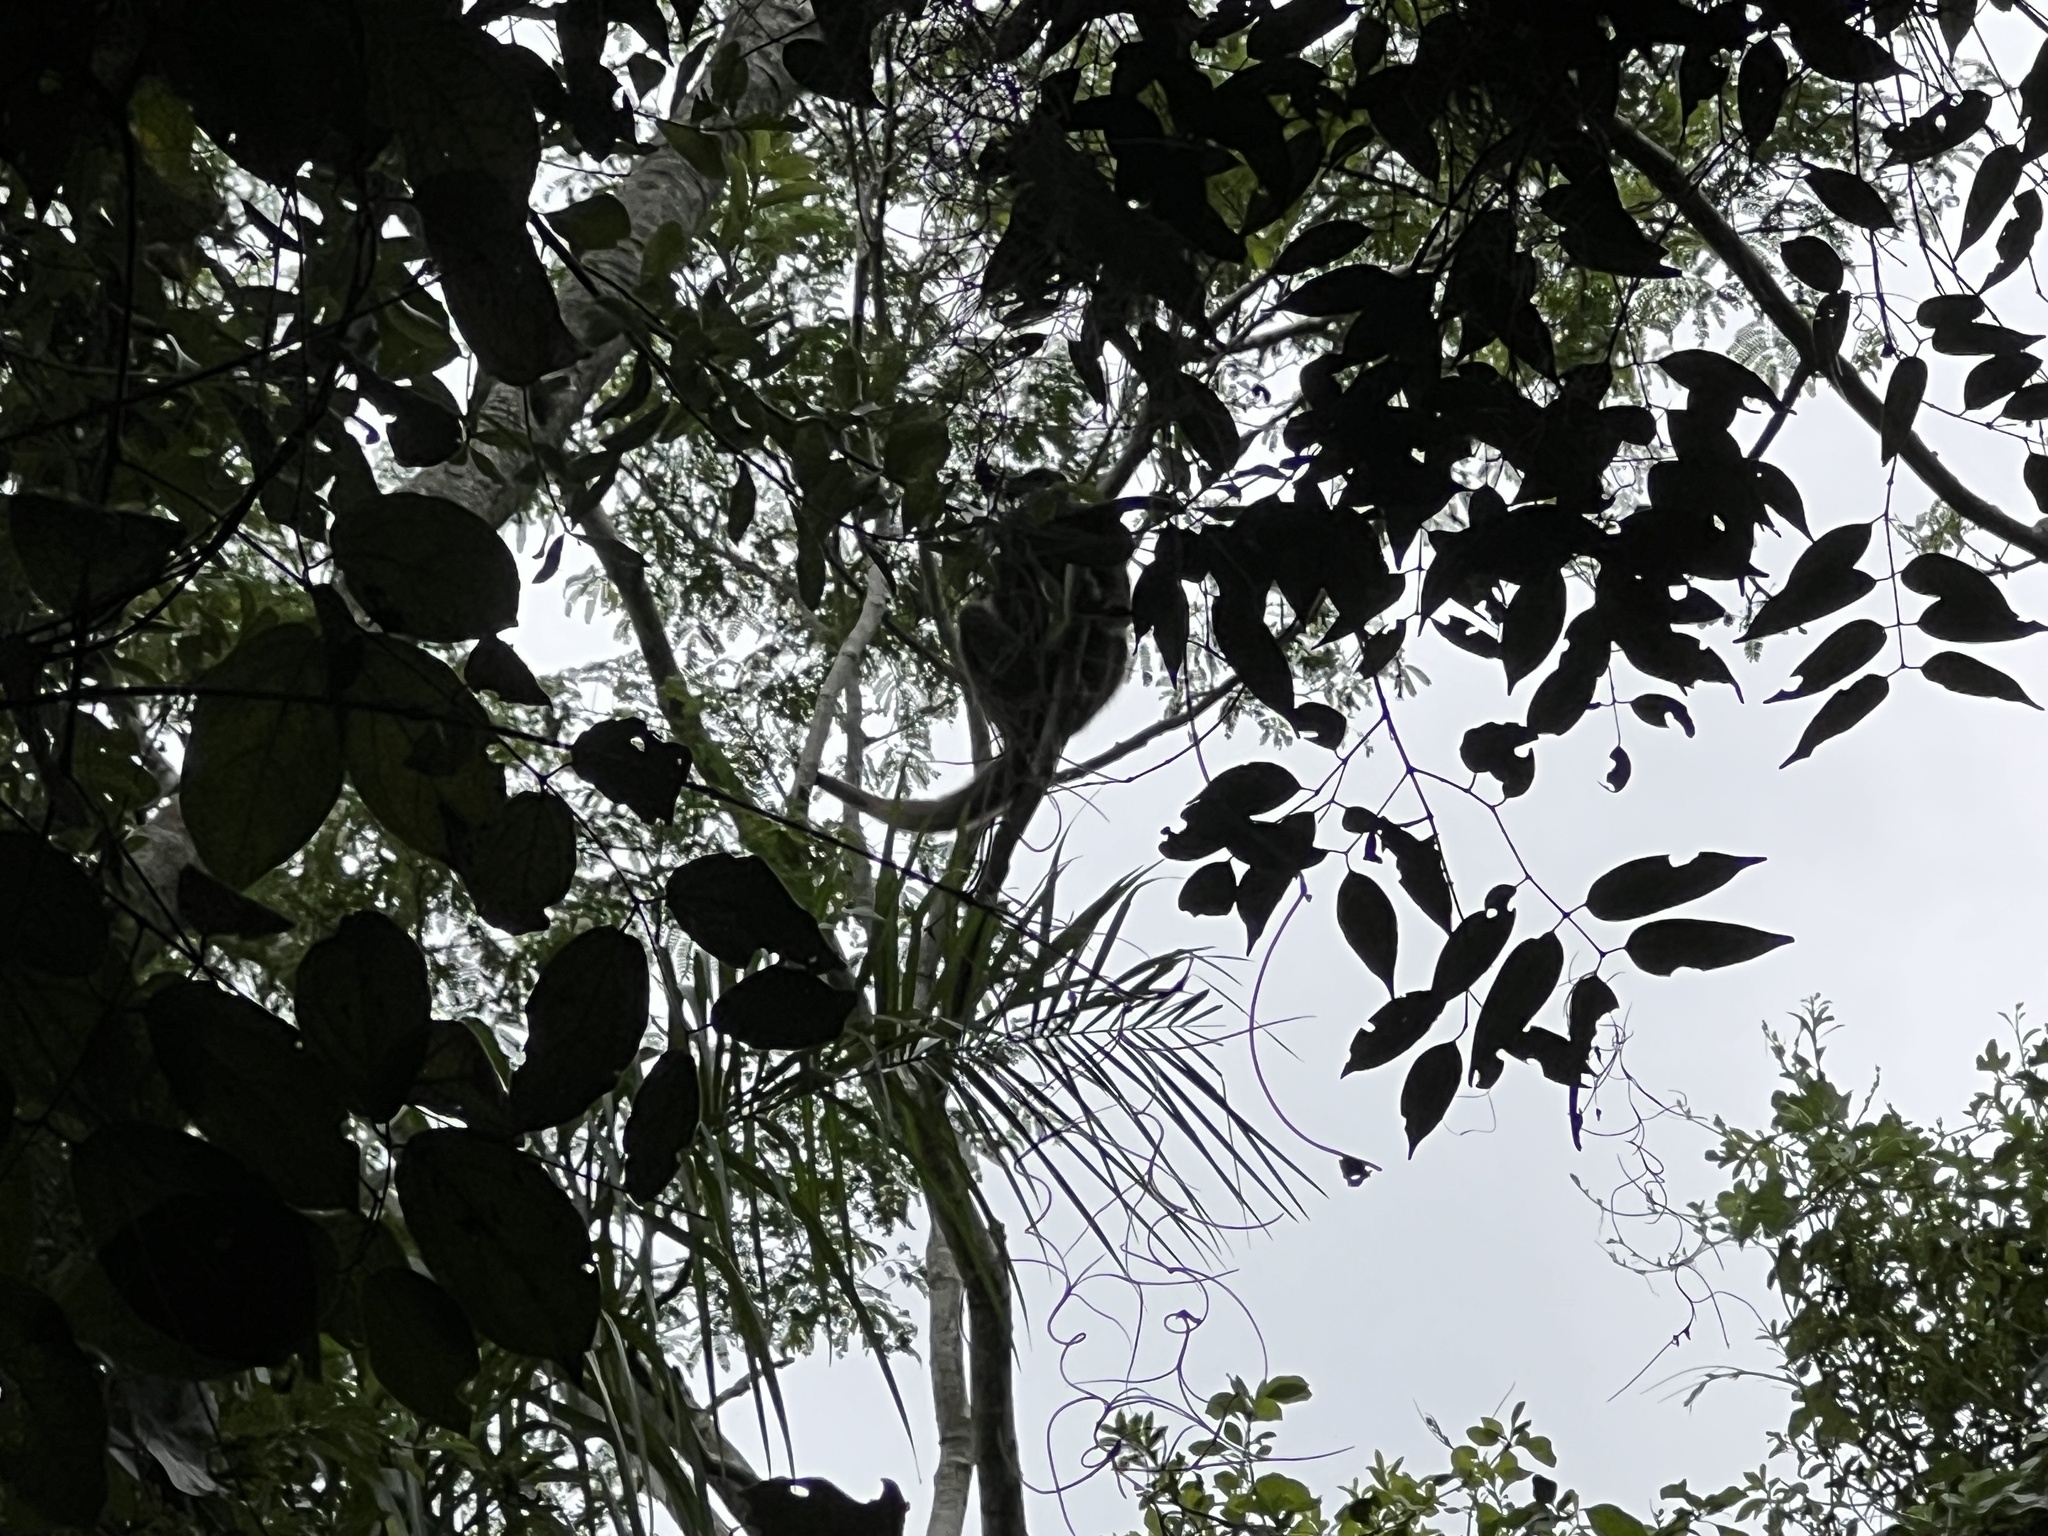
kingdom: Animalia
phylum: Chordata
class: Mammalia
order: Primates
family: Atelidae
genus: Alouatta
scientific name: Alouatta caraya
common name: Black howler
